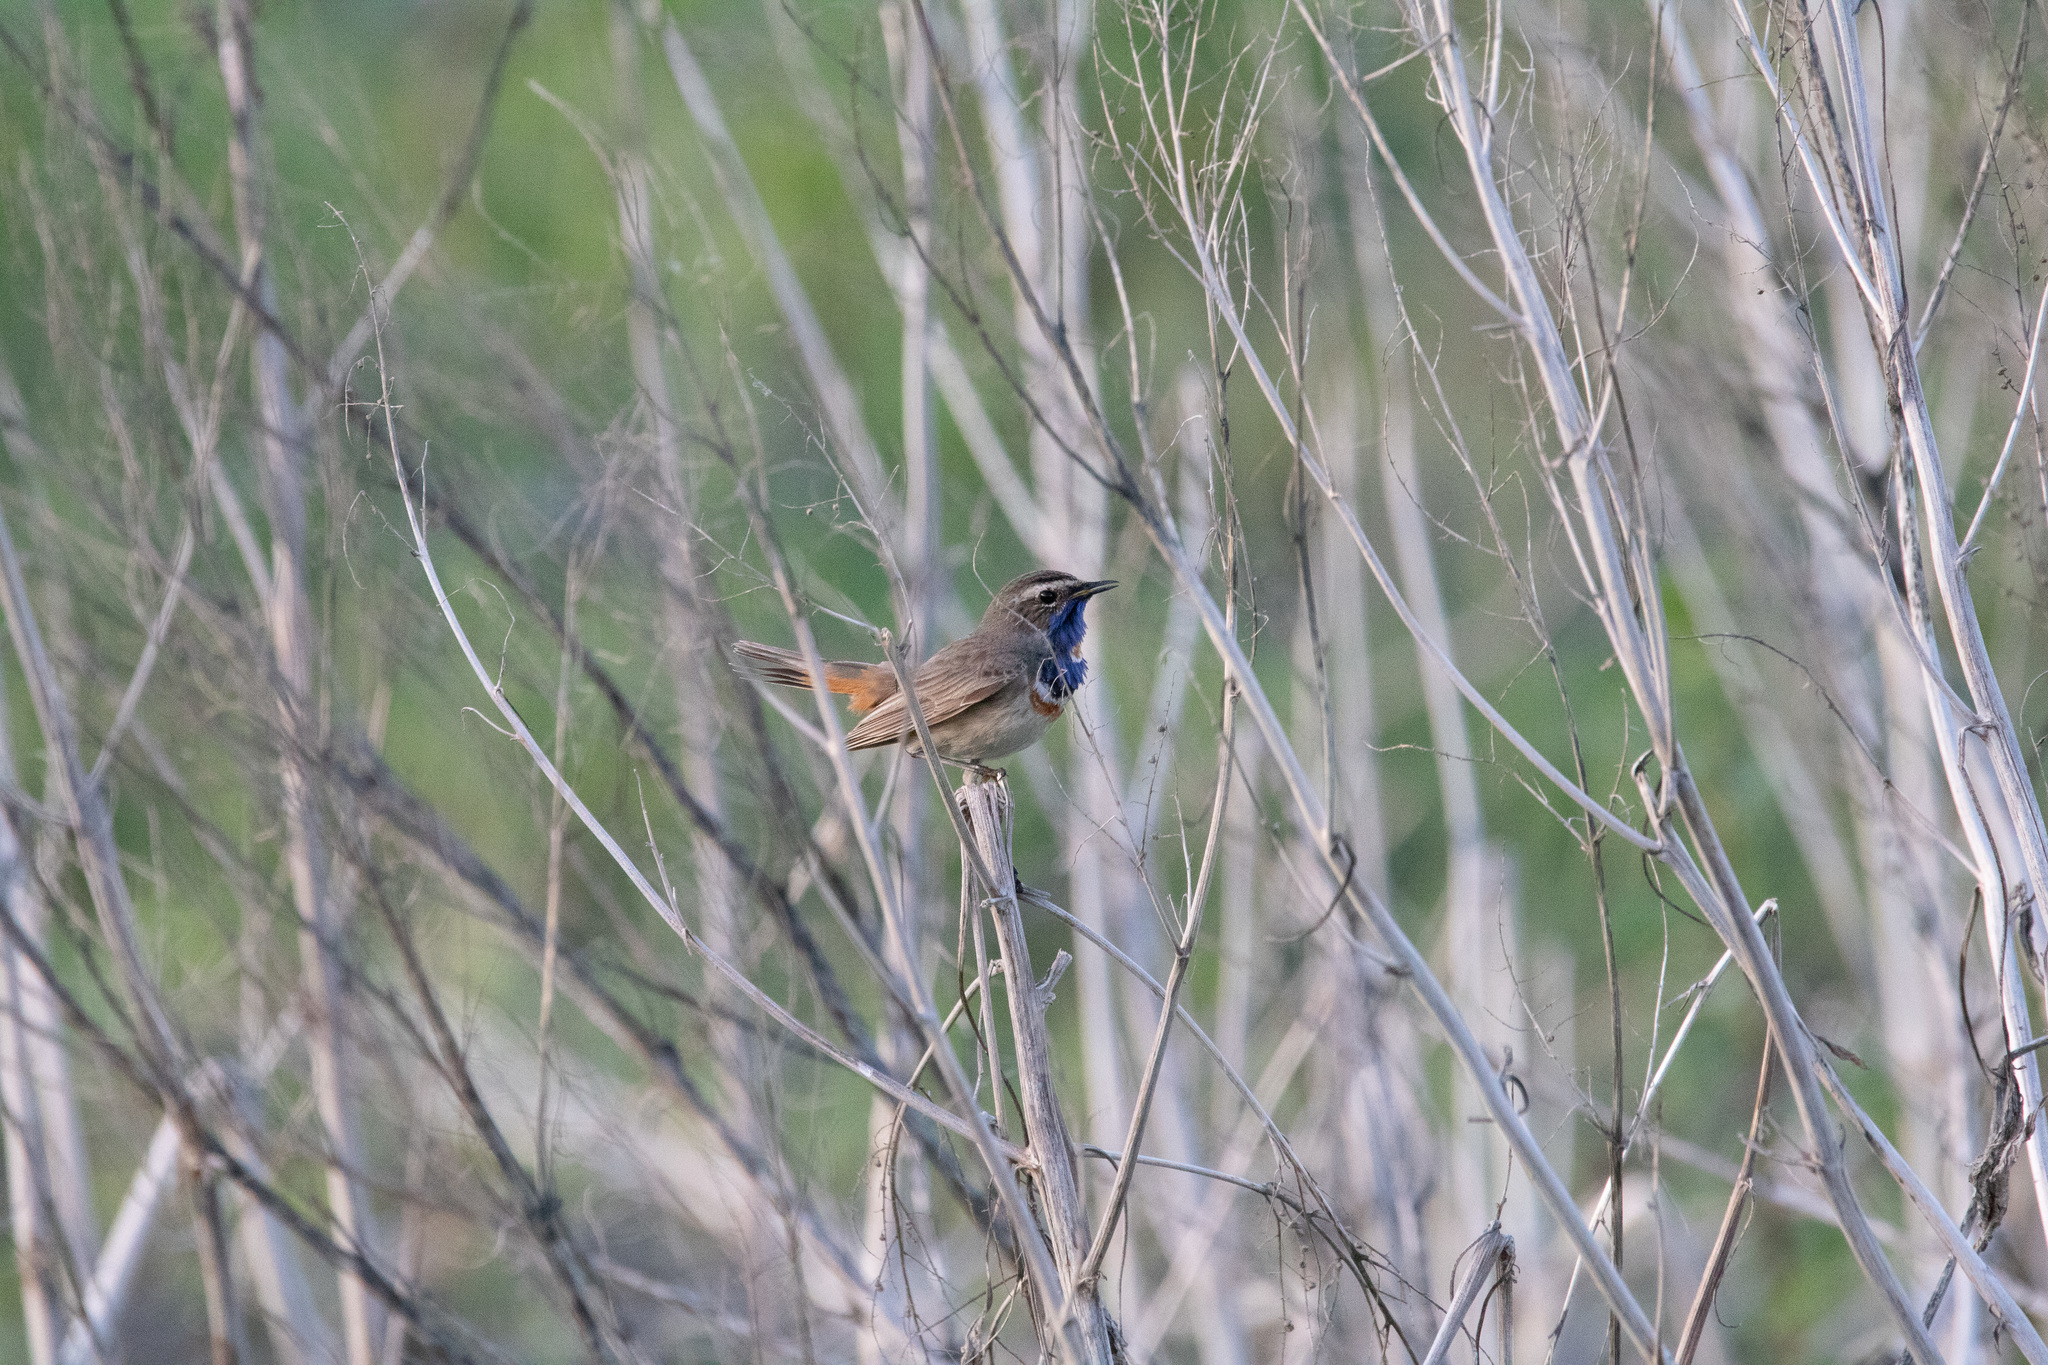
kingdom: Animalia
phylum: Chordata
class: Aves
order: Passeriformes
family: Muscicapidae
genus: Luscinia
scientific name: Luscinia svecica
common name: Bluethroat
